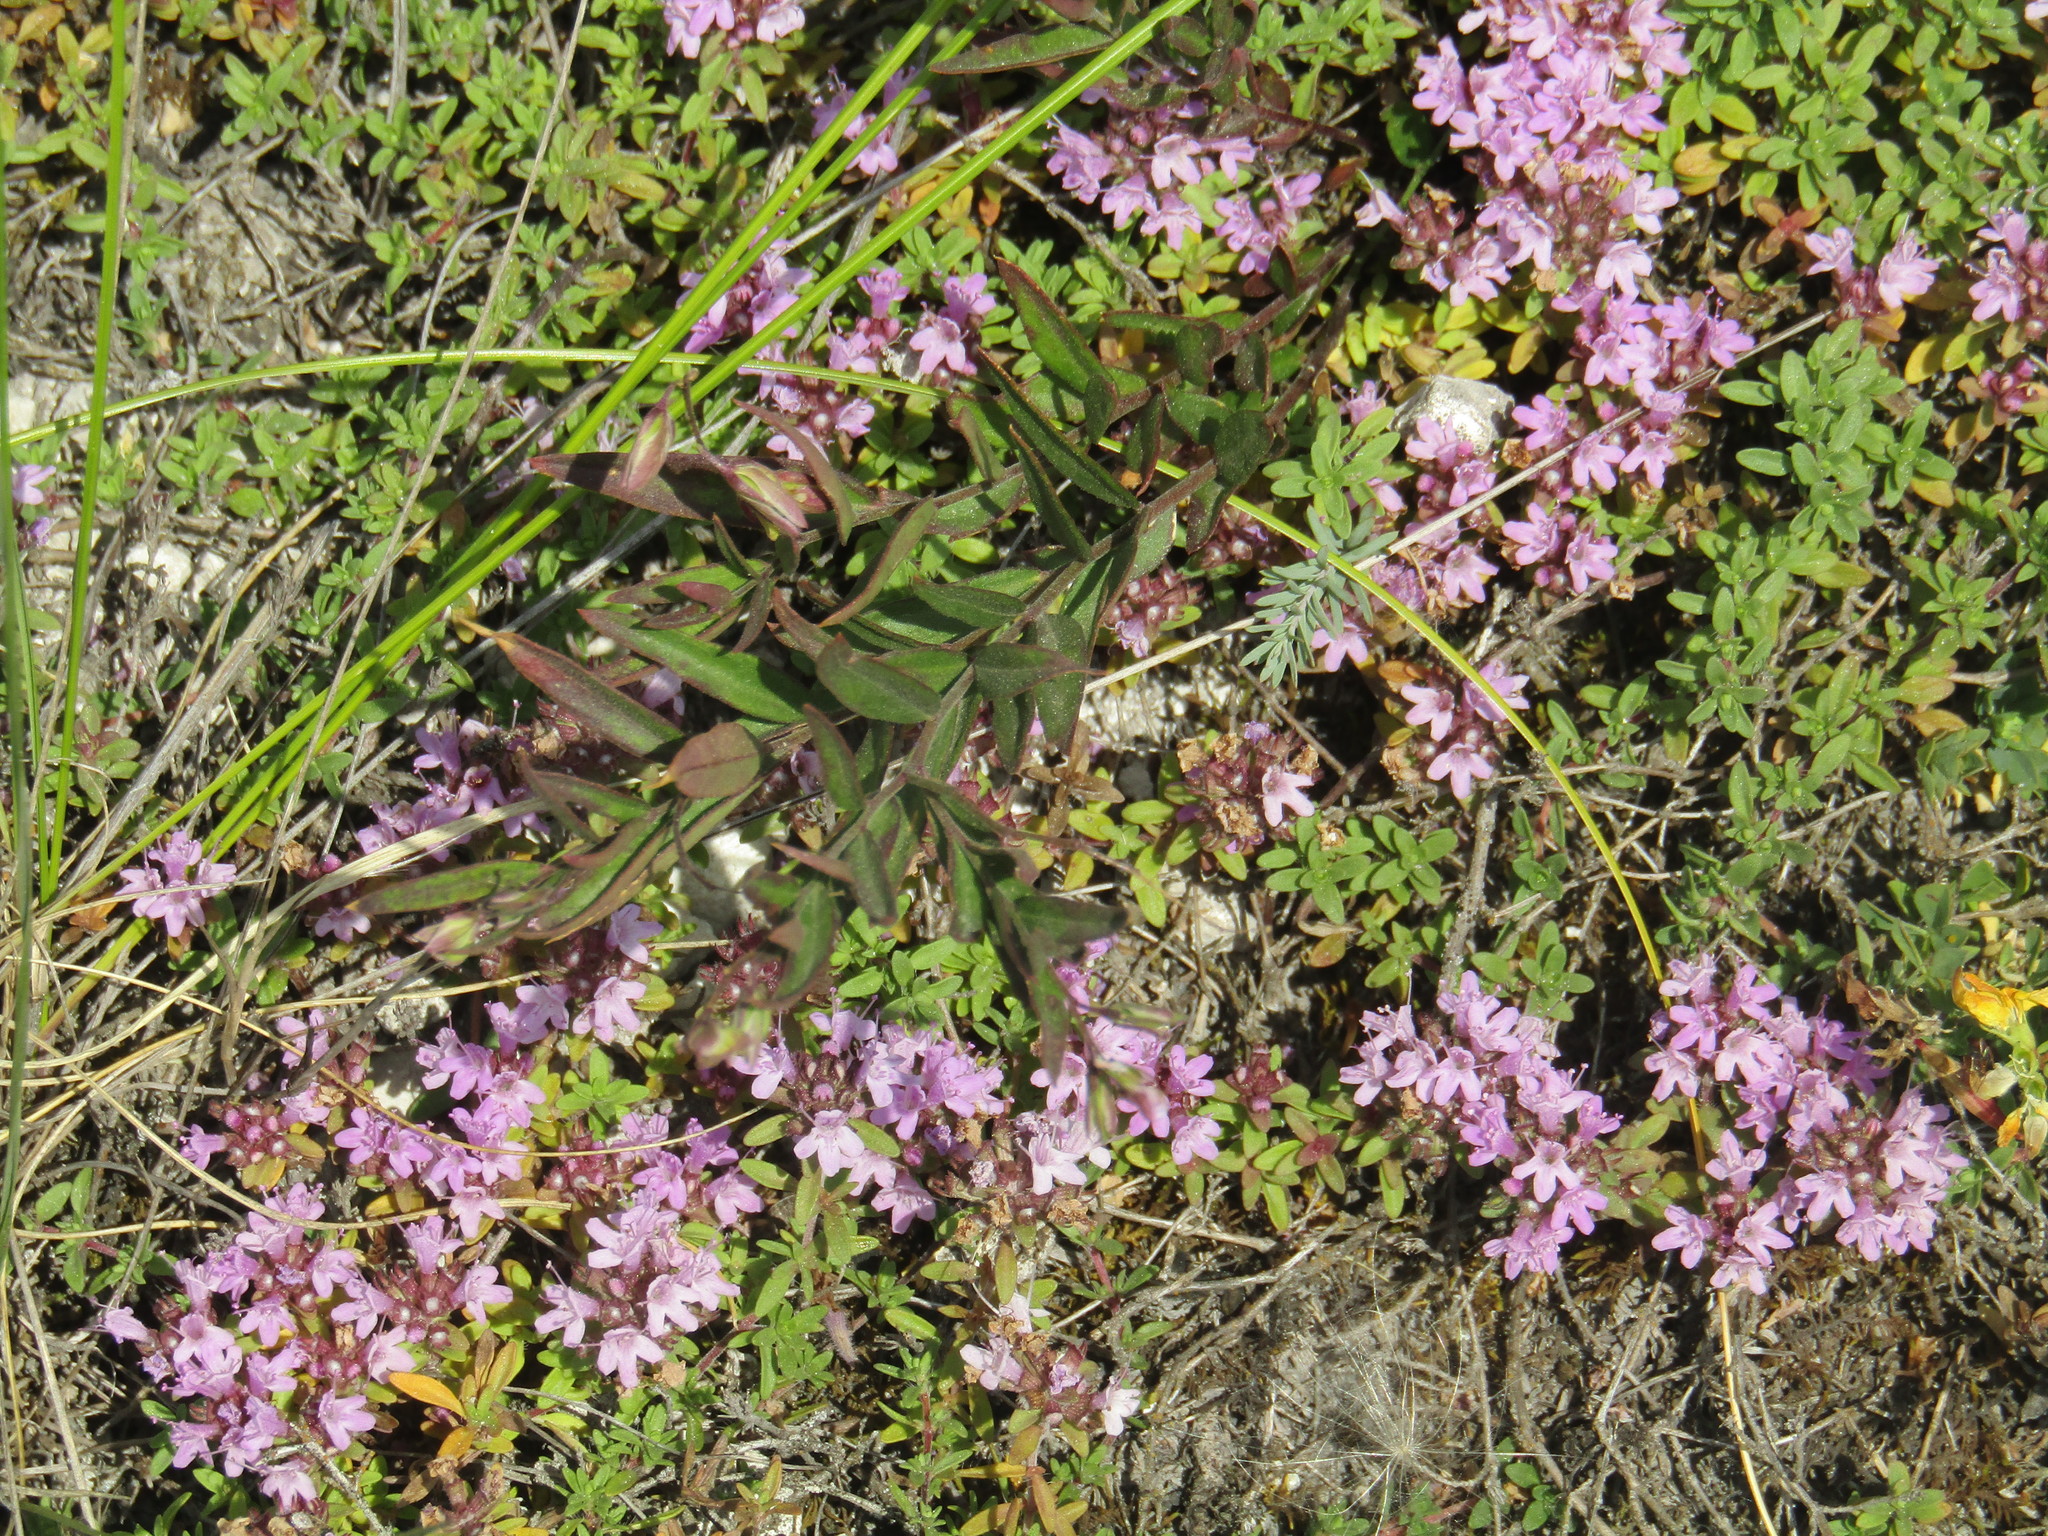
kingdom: Plantae
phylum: Tracheophyta
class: Magnoliopsida
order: Lamiales
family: Lamiaceae
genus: Thymus
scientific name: Thymus calcareus
